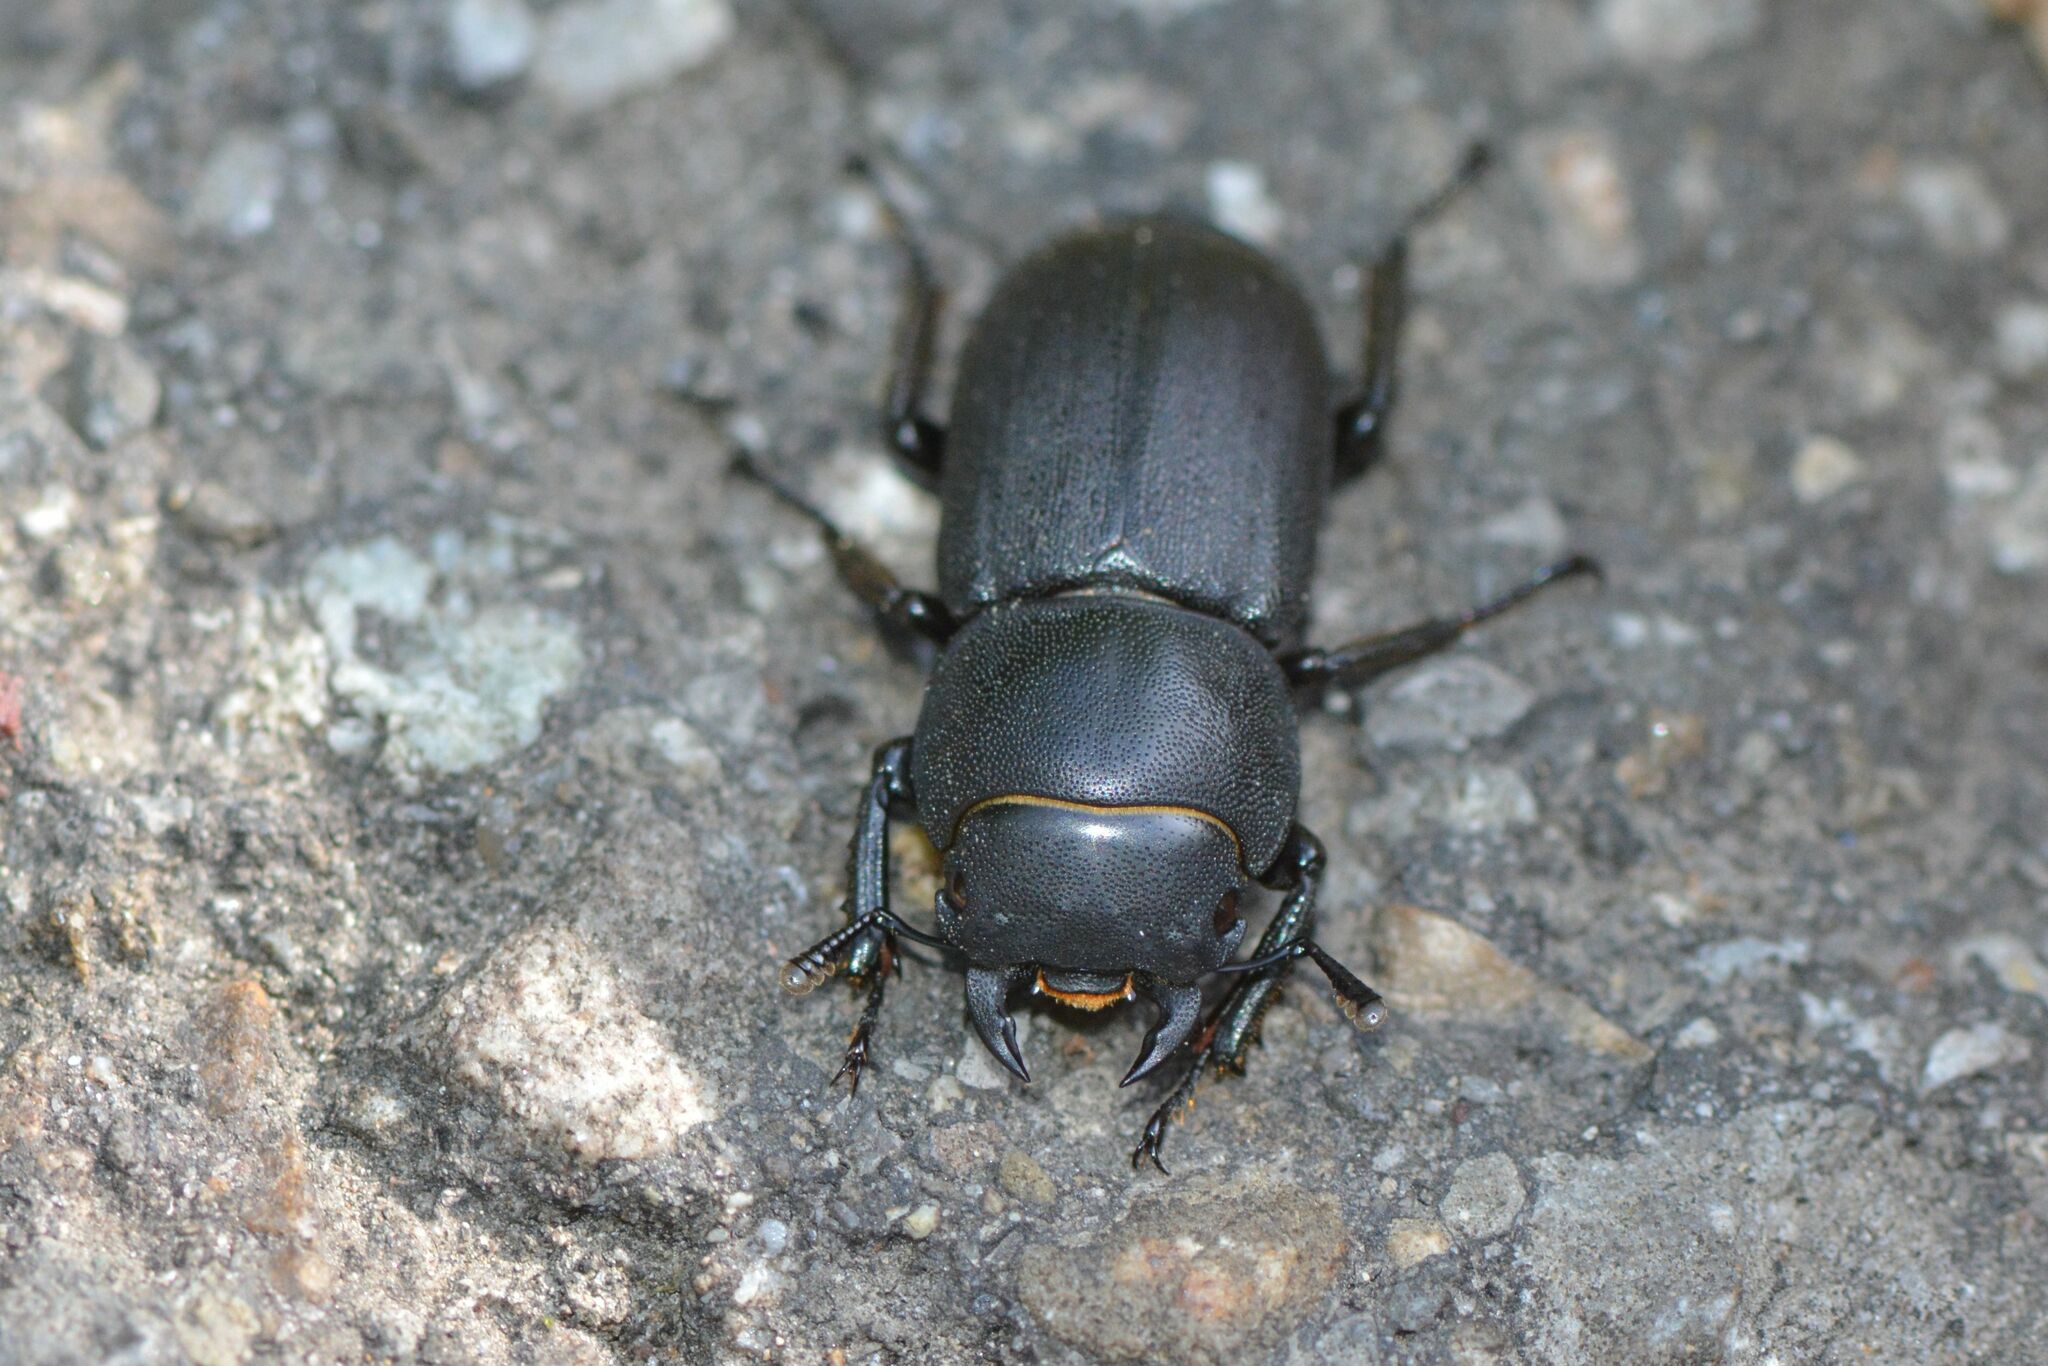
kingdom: Animalia
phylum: Arthropoda
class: Insecta
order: Coleoptera
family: Lucanidae
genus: Dorcus
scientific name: Dorcus parallelipipedus
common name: Lesser stag beetle
